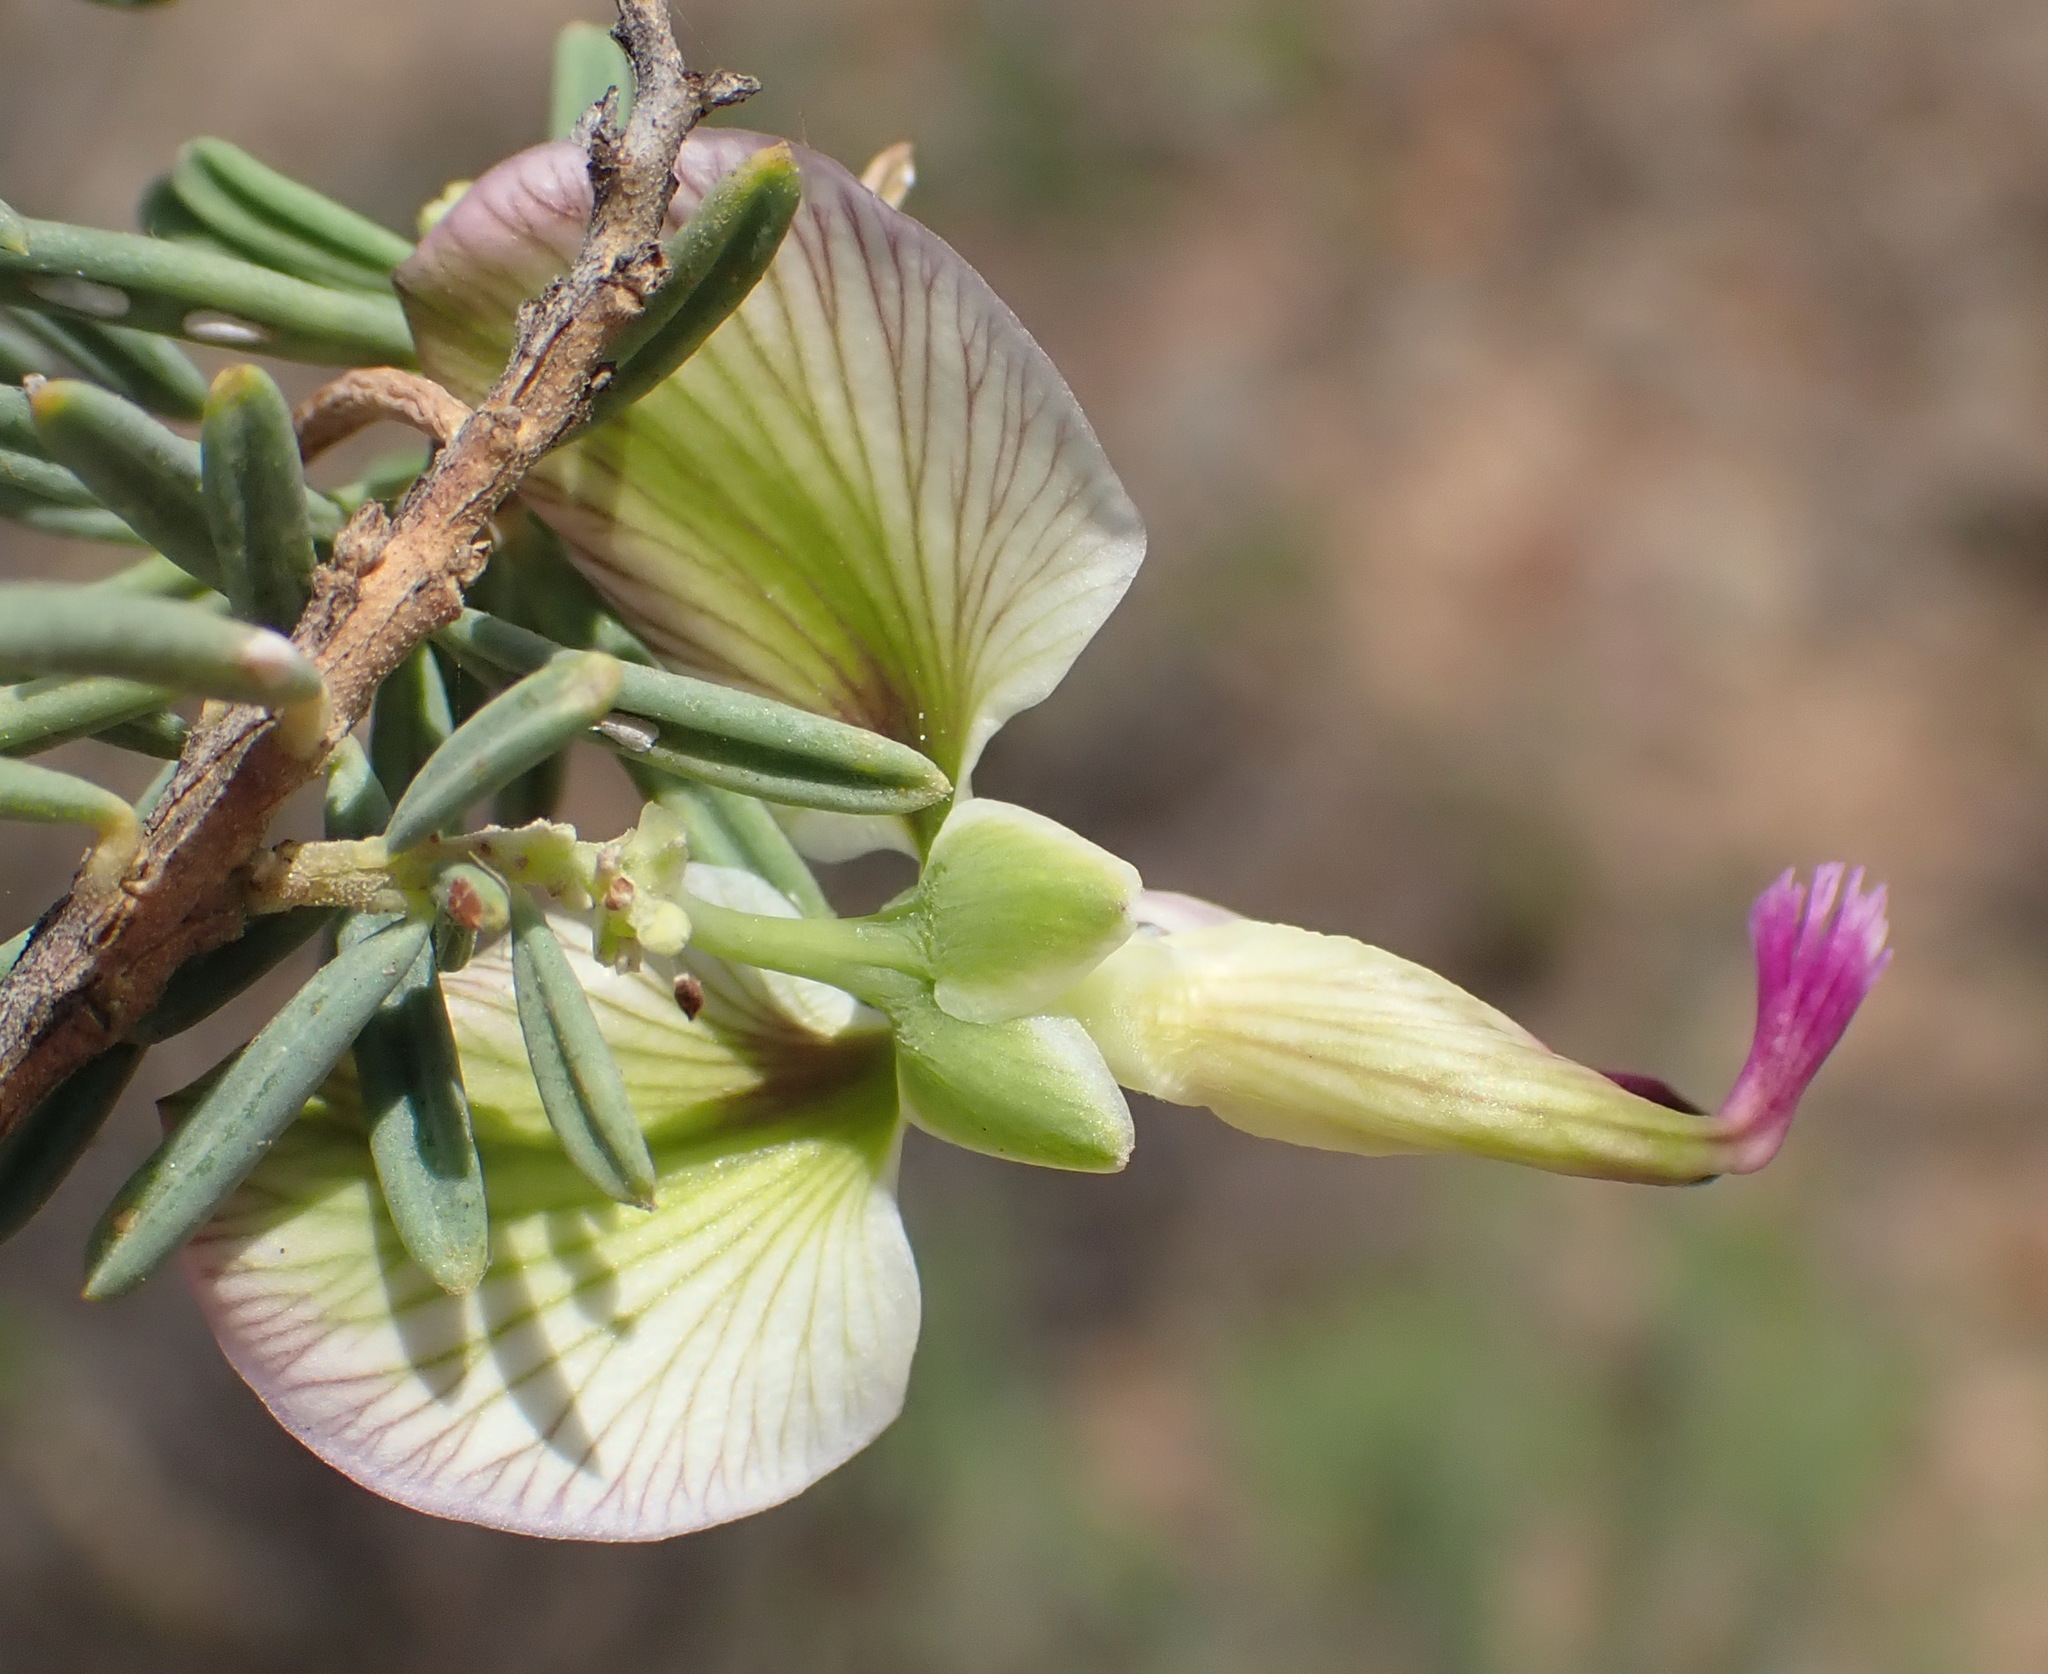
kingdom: Plantae
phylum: Tracheophyta
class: Magnoliopsida
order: Fabales
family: Polygalaceae
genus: Polygala
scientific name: Polygala myrtifolia
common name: Myrtle-leaf milkwort
